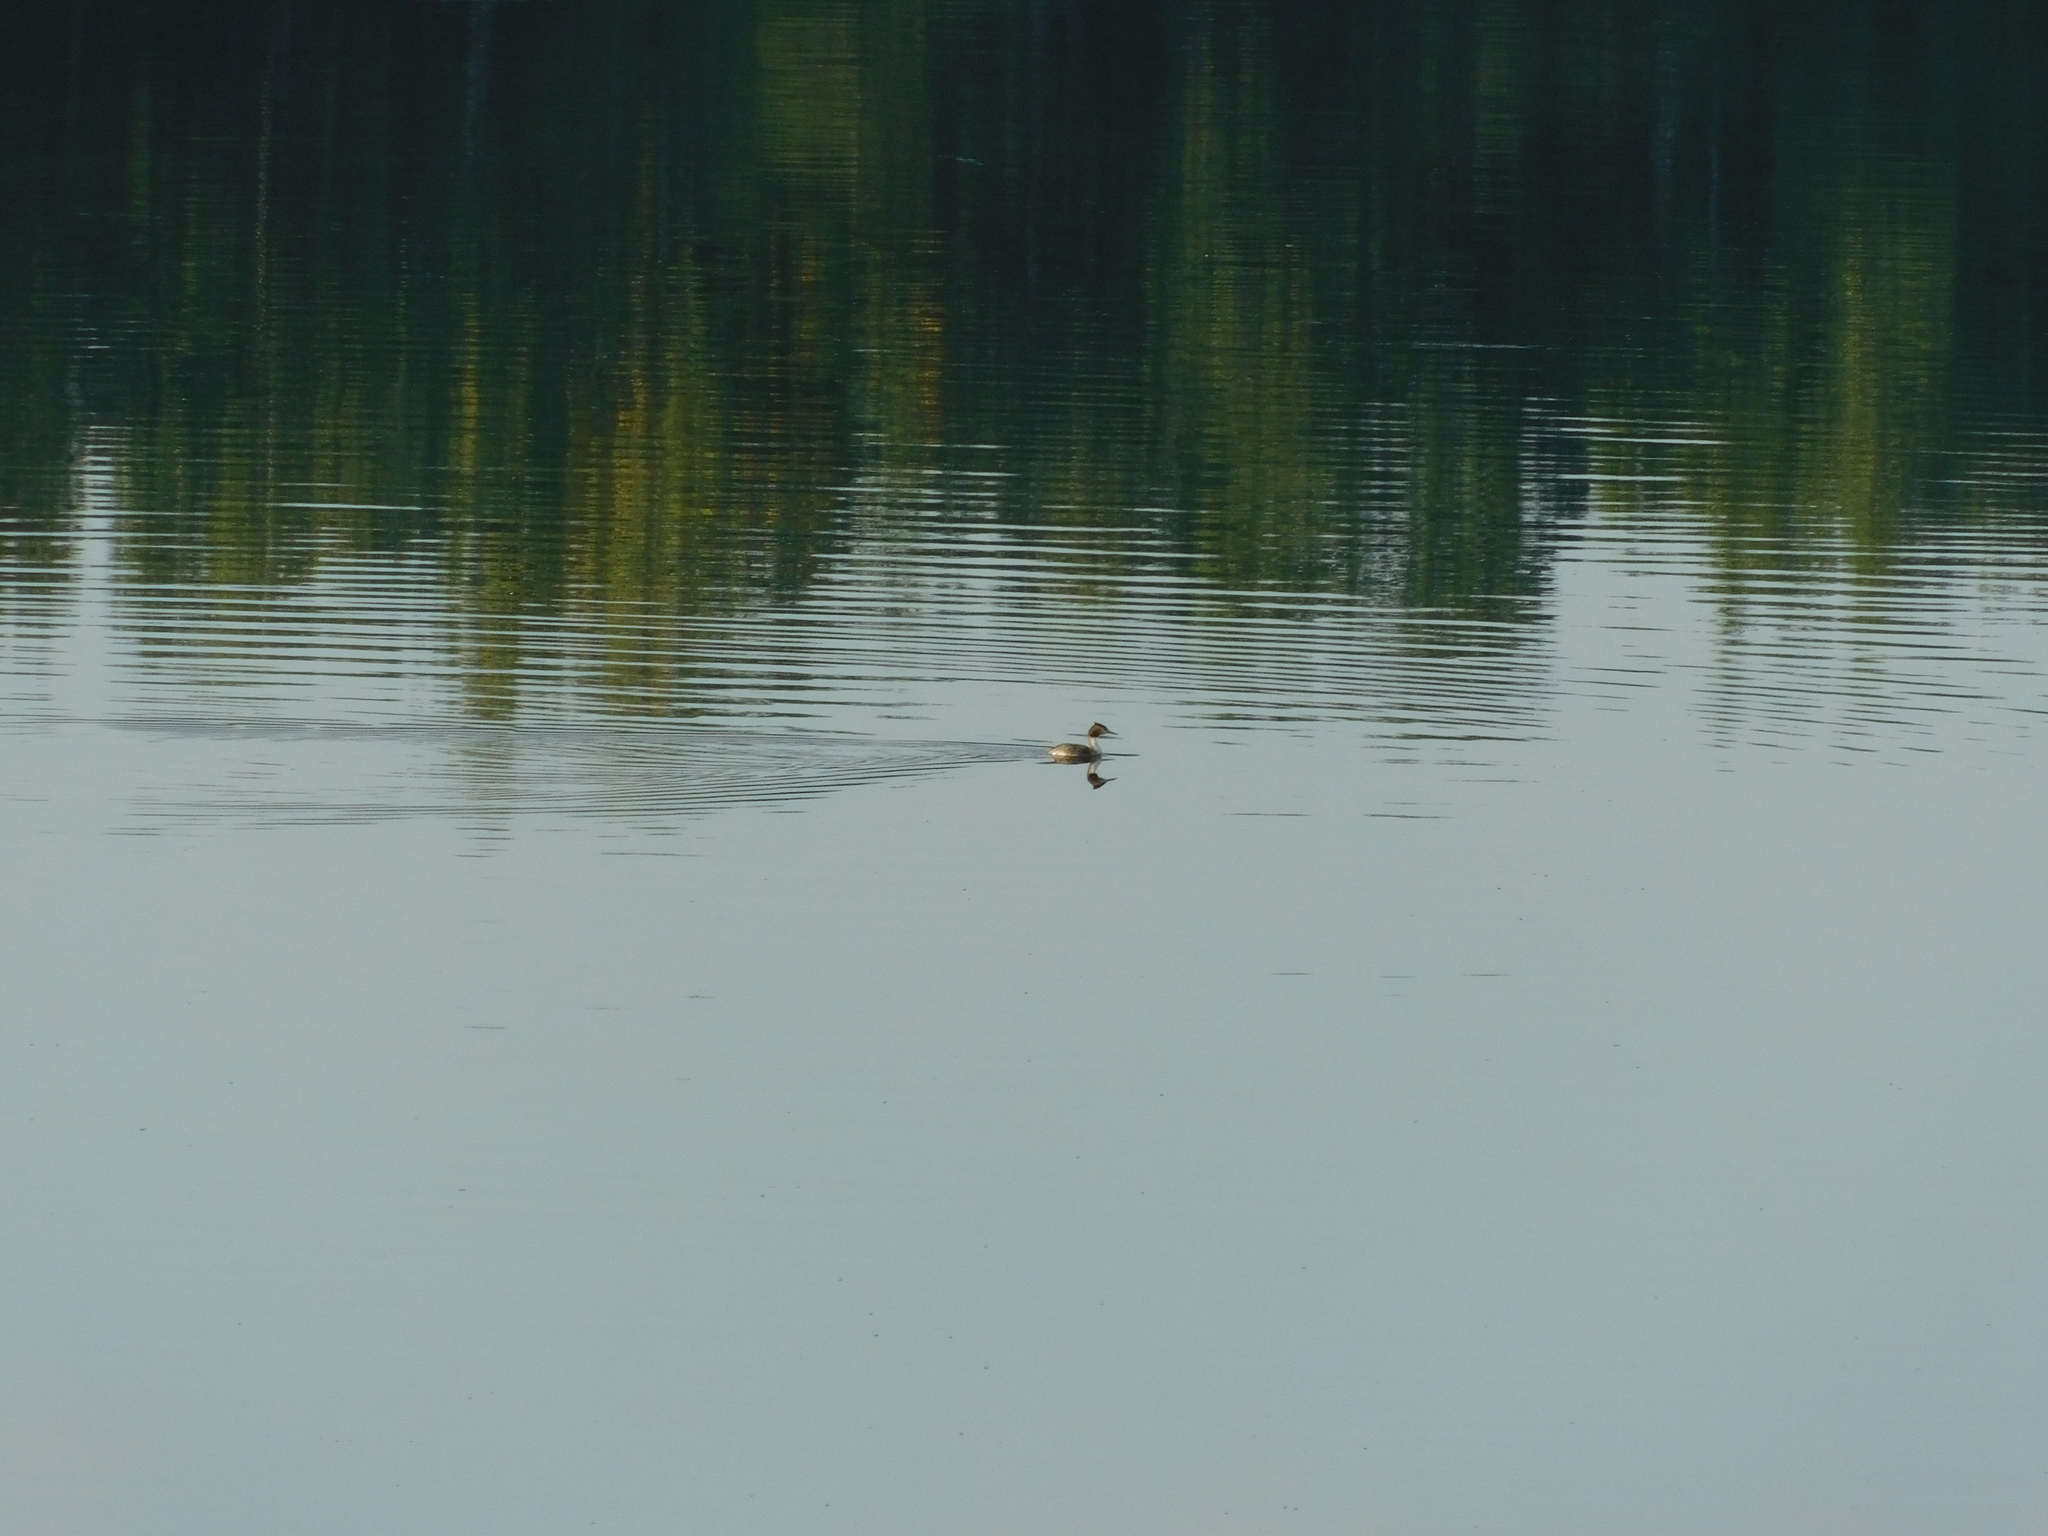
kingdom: Animalia
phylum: Chordata
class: Aves
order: Podicipediformes
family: Podicipedidae
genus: Podiceps
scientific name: Podiceps cristatus
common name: Great crested grebe
